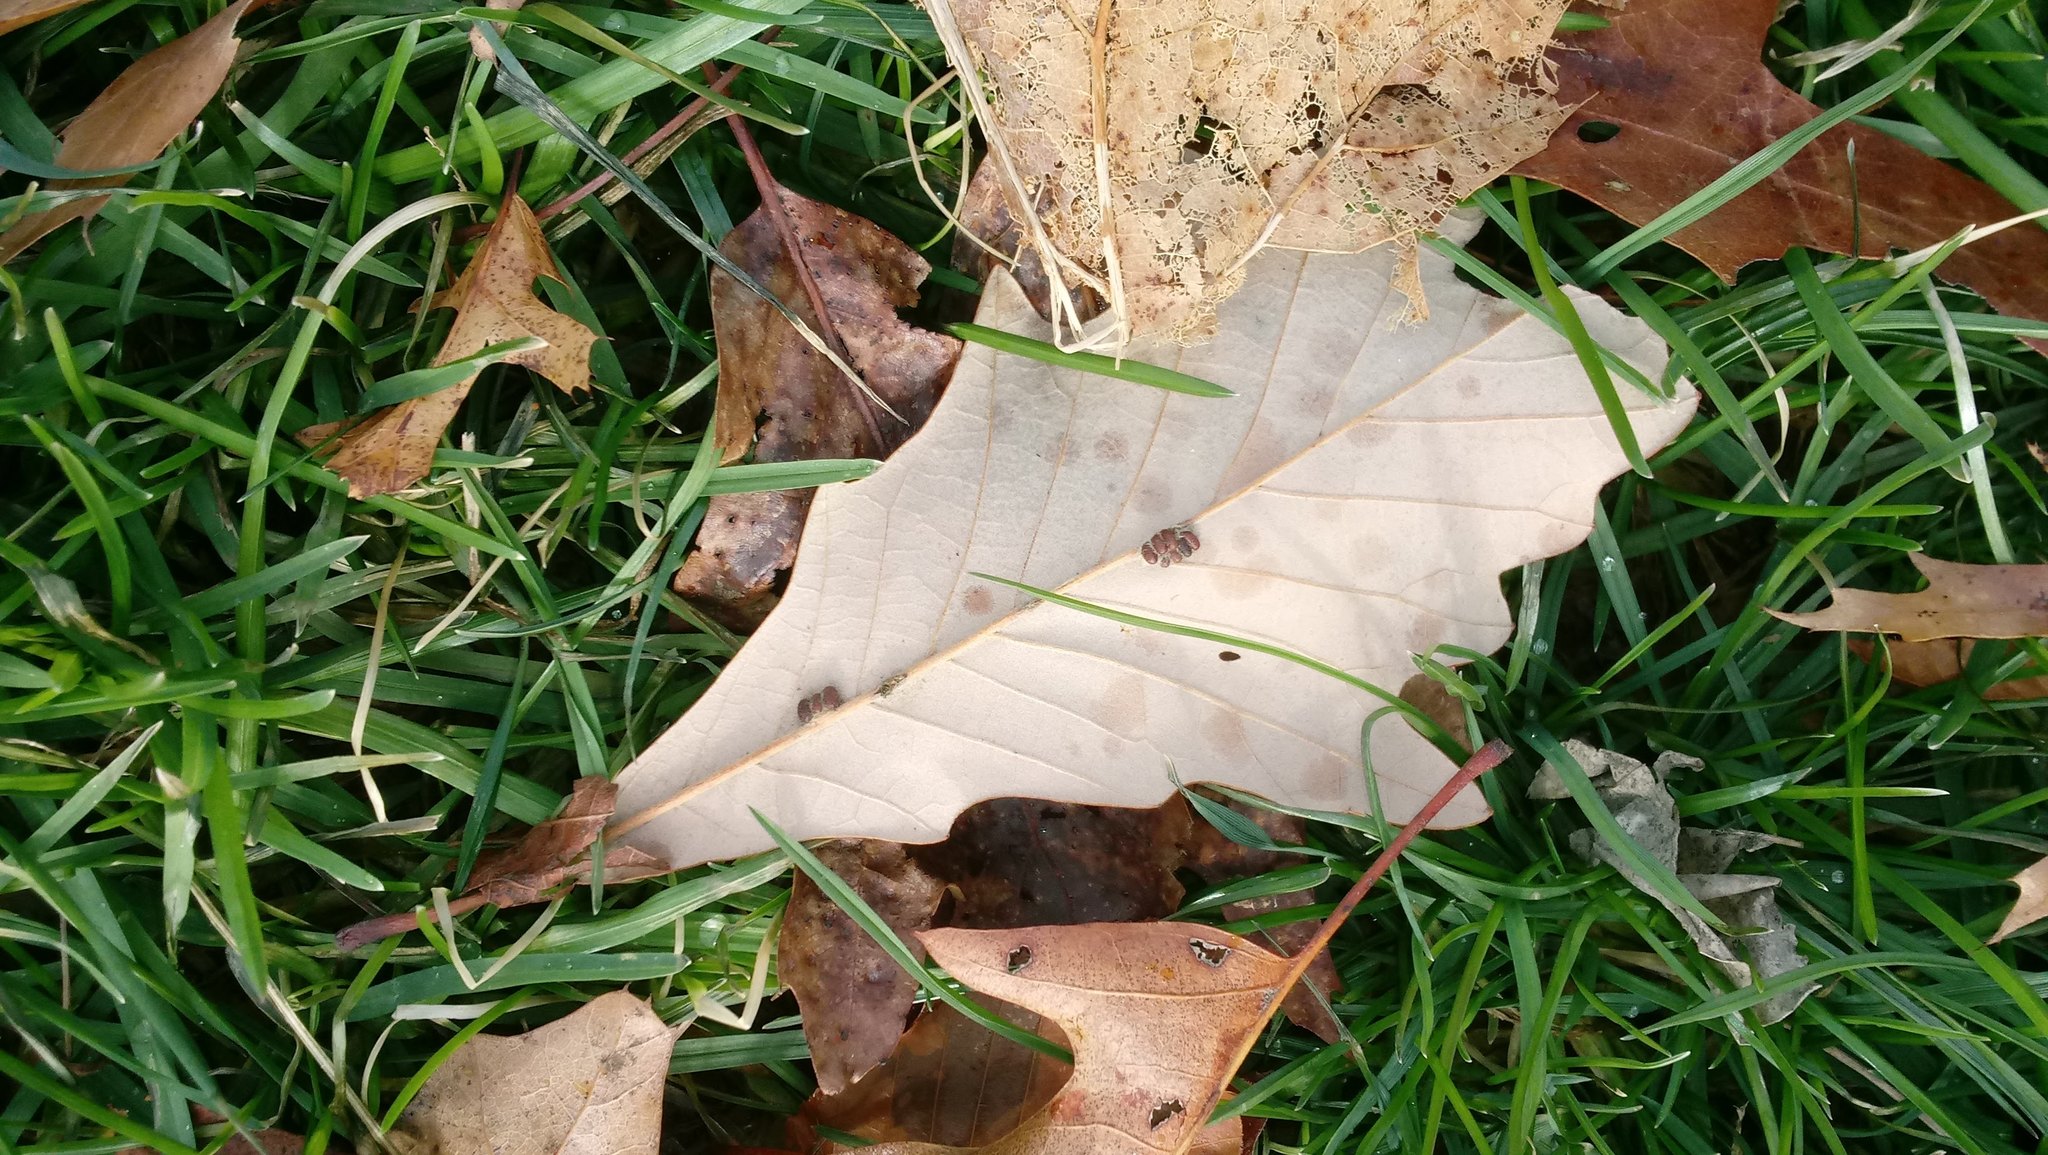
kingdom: Animalia
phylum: Arthropoda
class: Insecta
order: Hymenoptera
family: Cynipidae
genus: Andricus
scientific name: Andricus Druon ignotum
